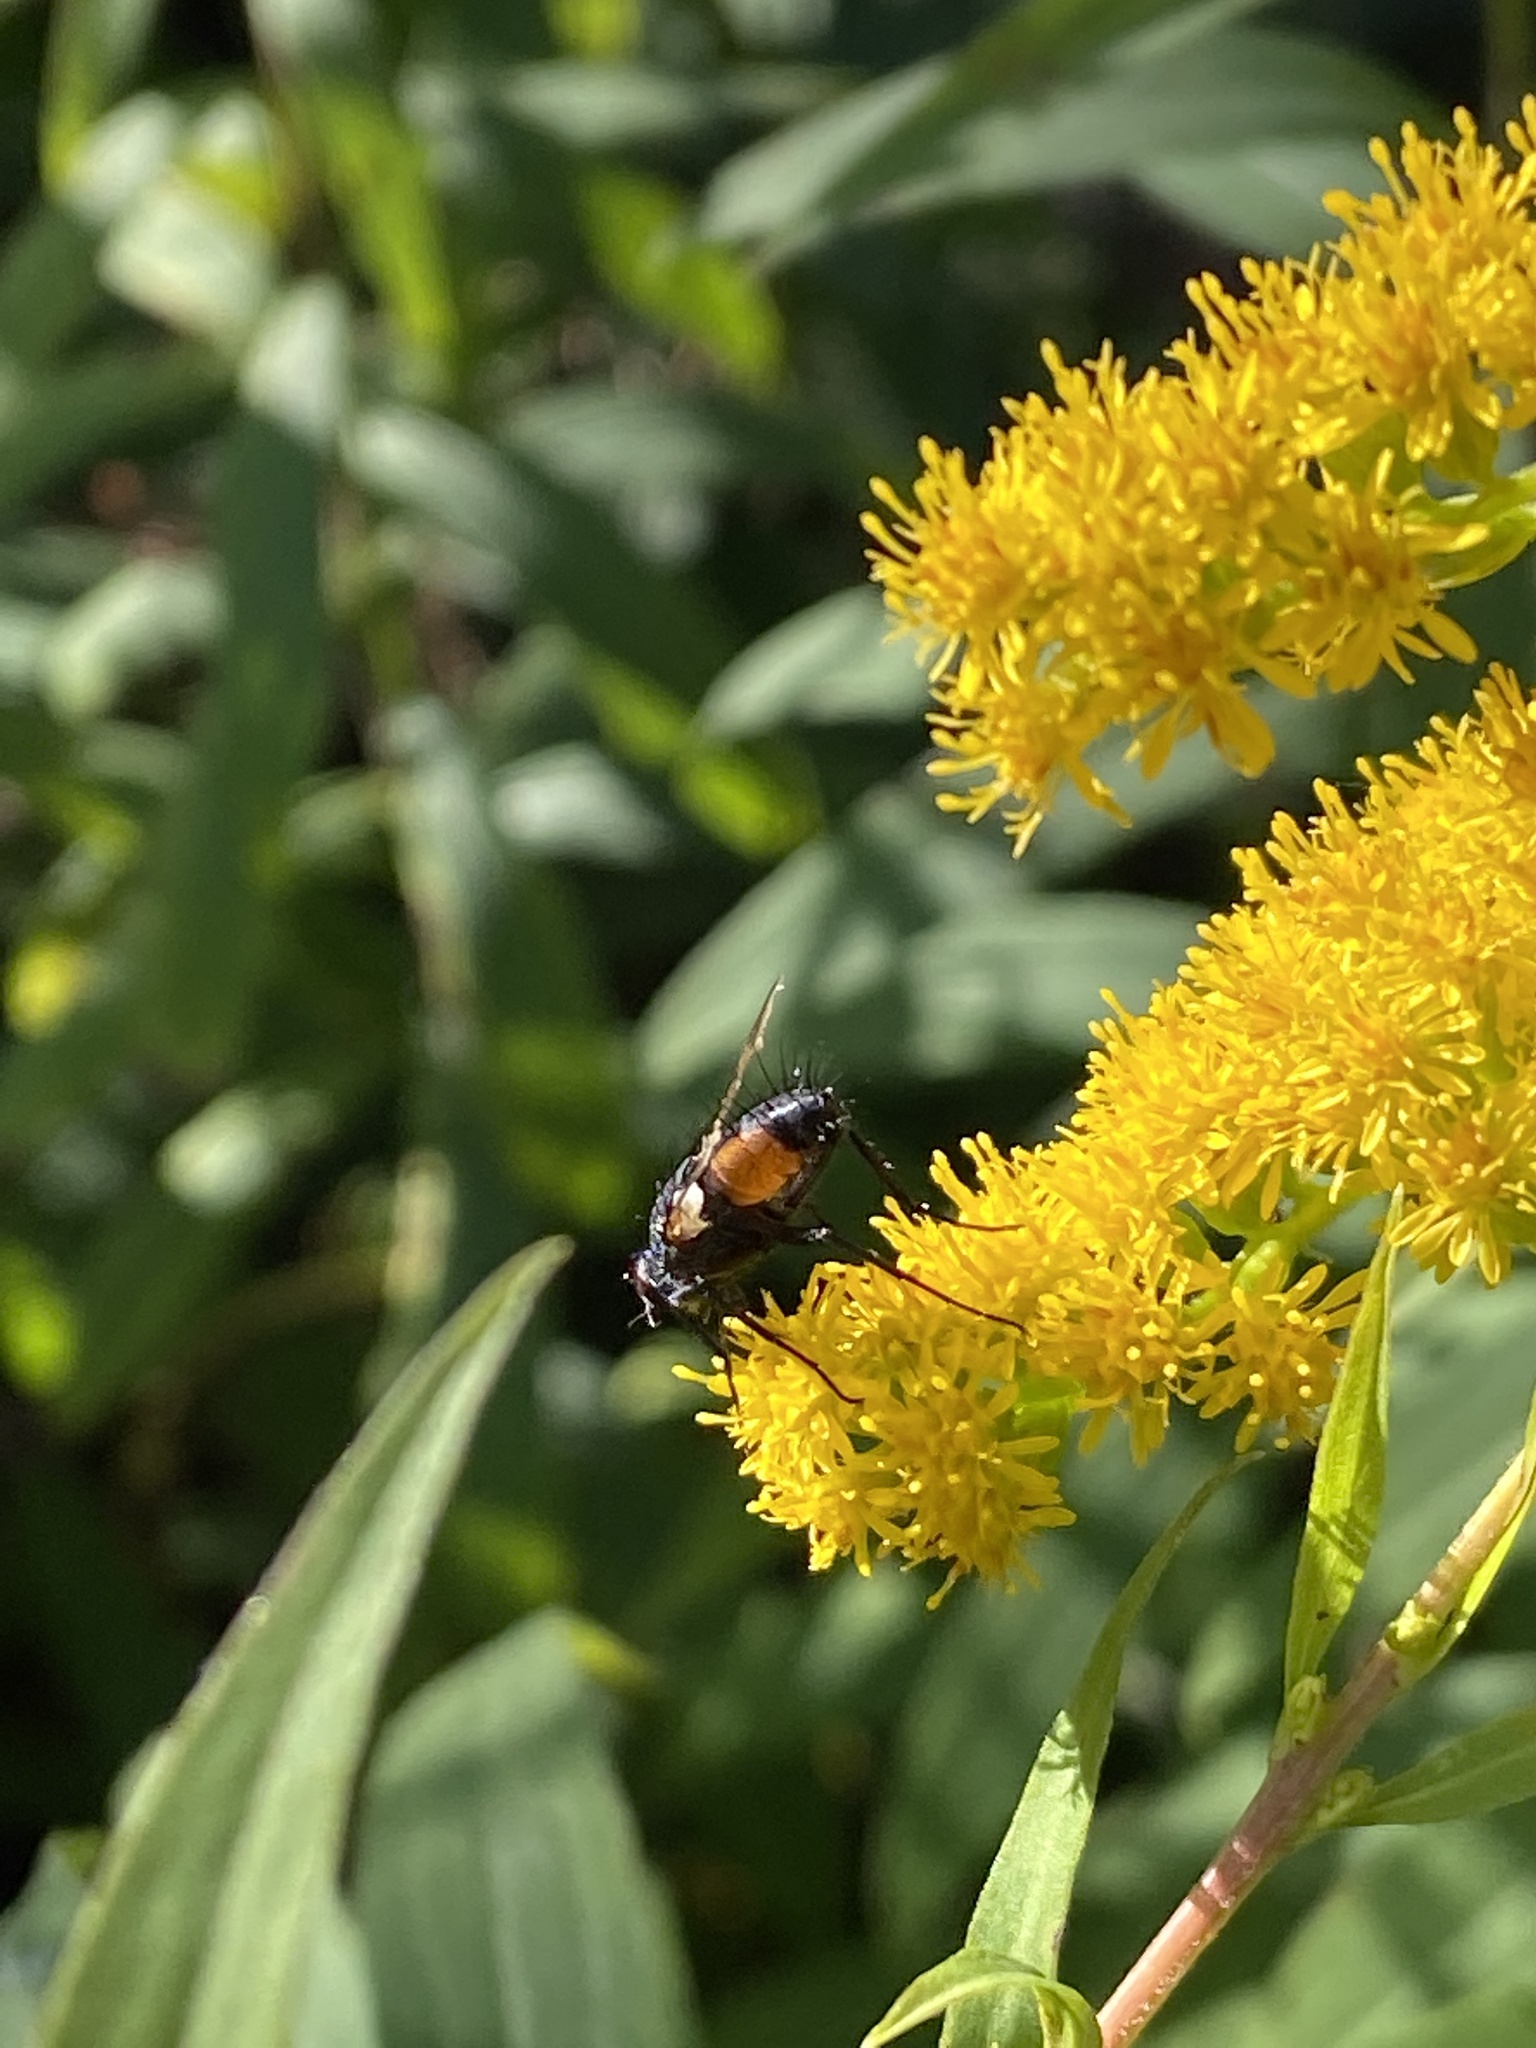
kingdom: Animalia
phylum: Arthropoda
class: Insecta
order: Diptera
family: Tachinidae
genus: Eriothrix
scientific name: Eriothrix rufomaculatus
